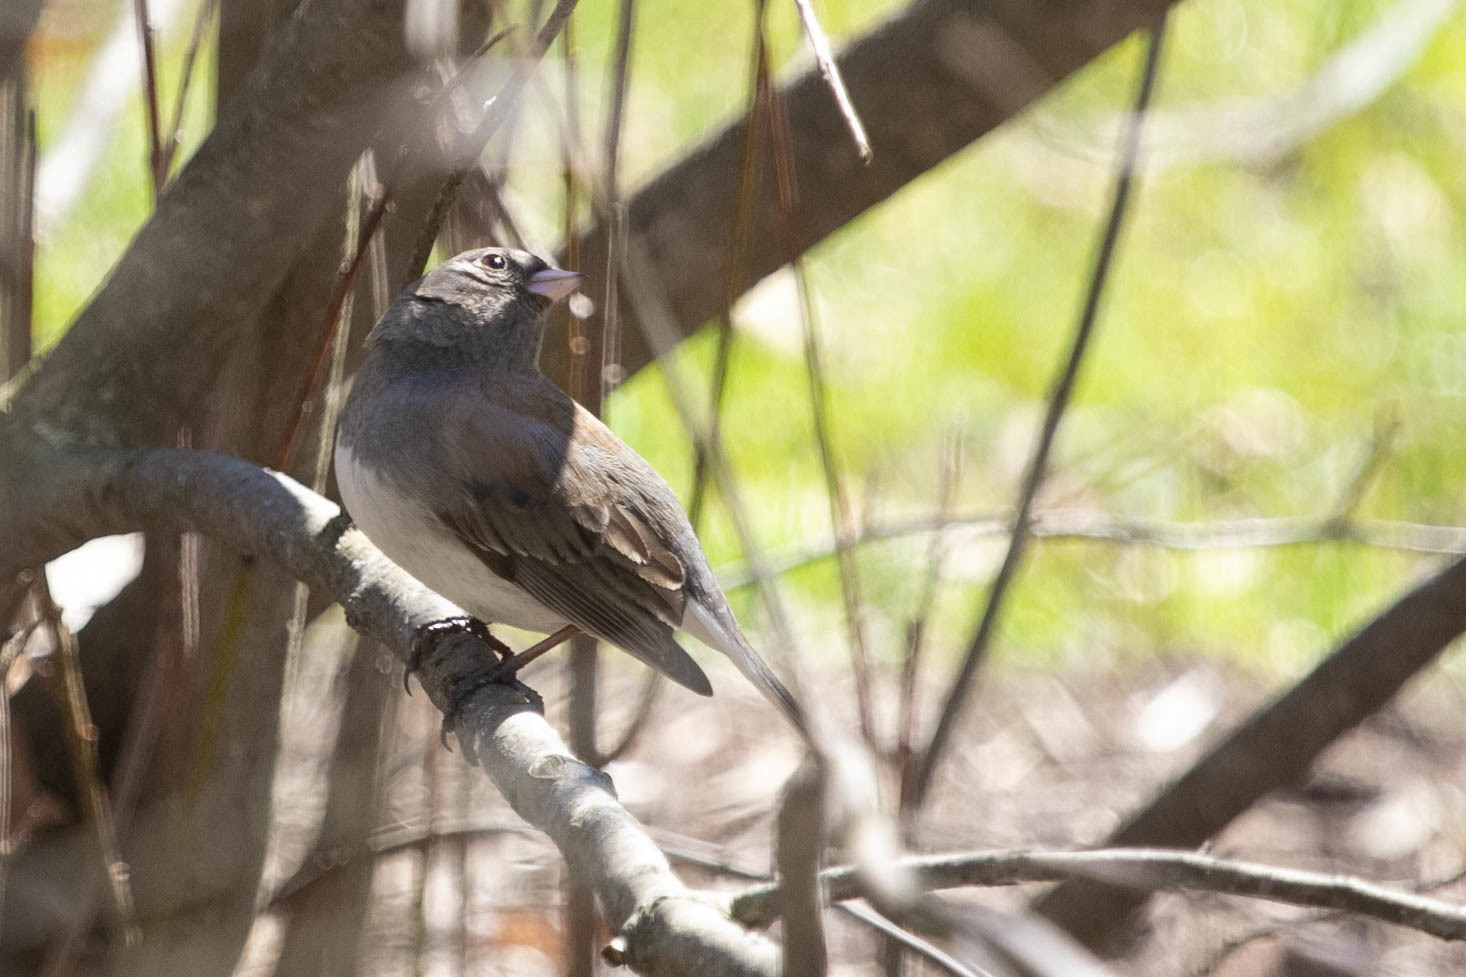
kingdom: Animalia
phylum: Chordata
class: Aves
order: Passeriformes
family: Passerellidae
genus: Junco
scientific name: Junco hyemalis
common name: Dark-eyed junco
